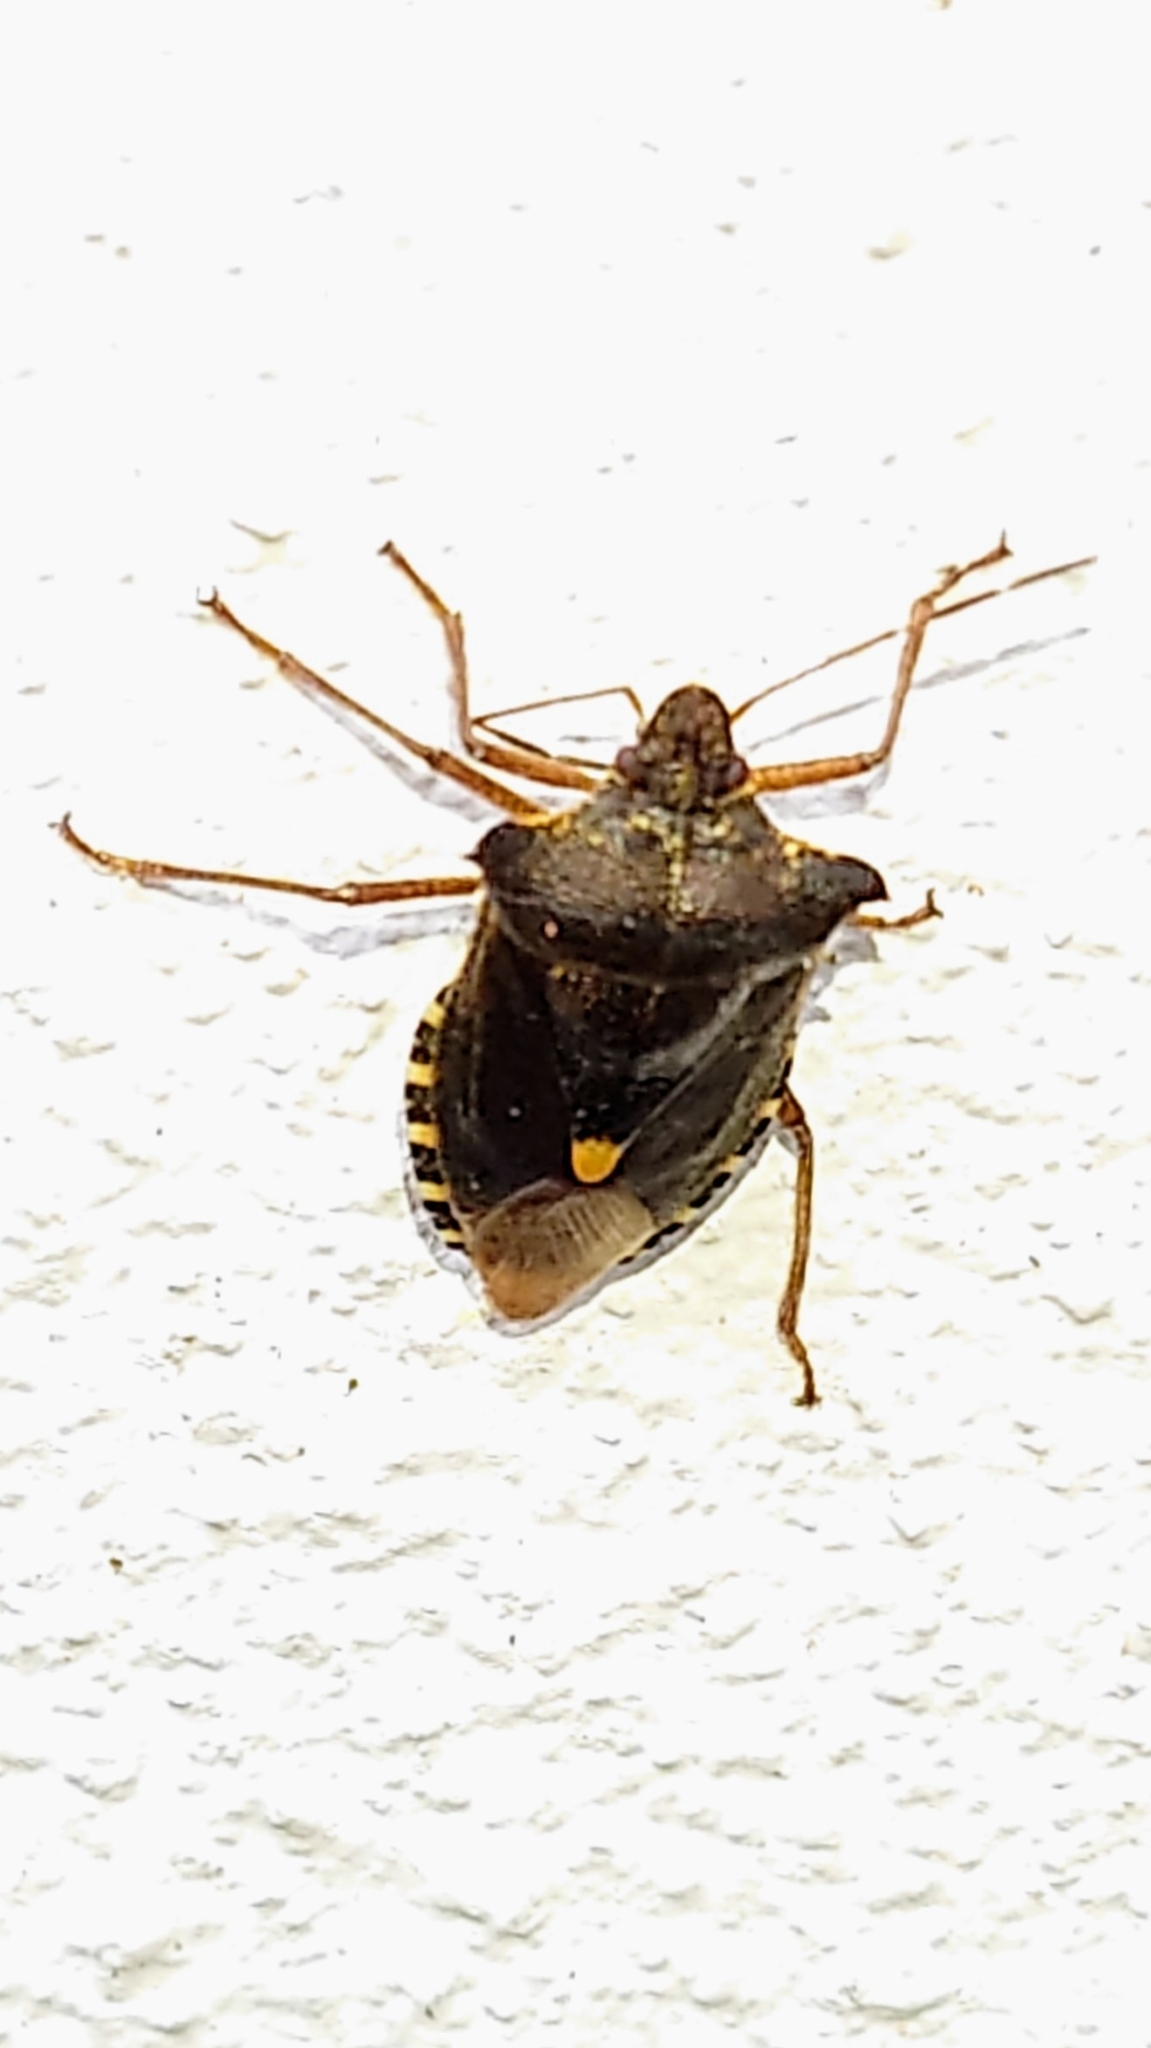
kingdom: Animalia
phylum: Arthropoda
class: Insecta
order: Hemiptera
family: Pentatomidae
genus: Pentatoma
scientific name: Pentatoma rufipes
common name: Forest bug
